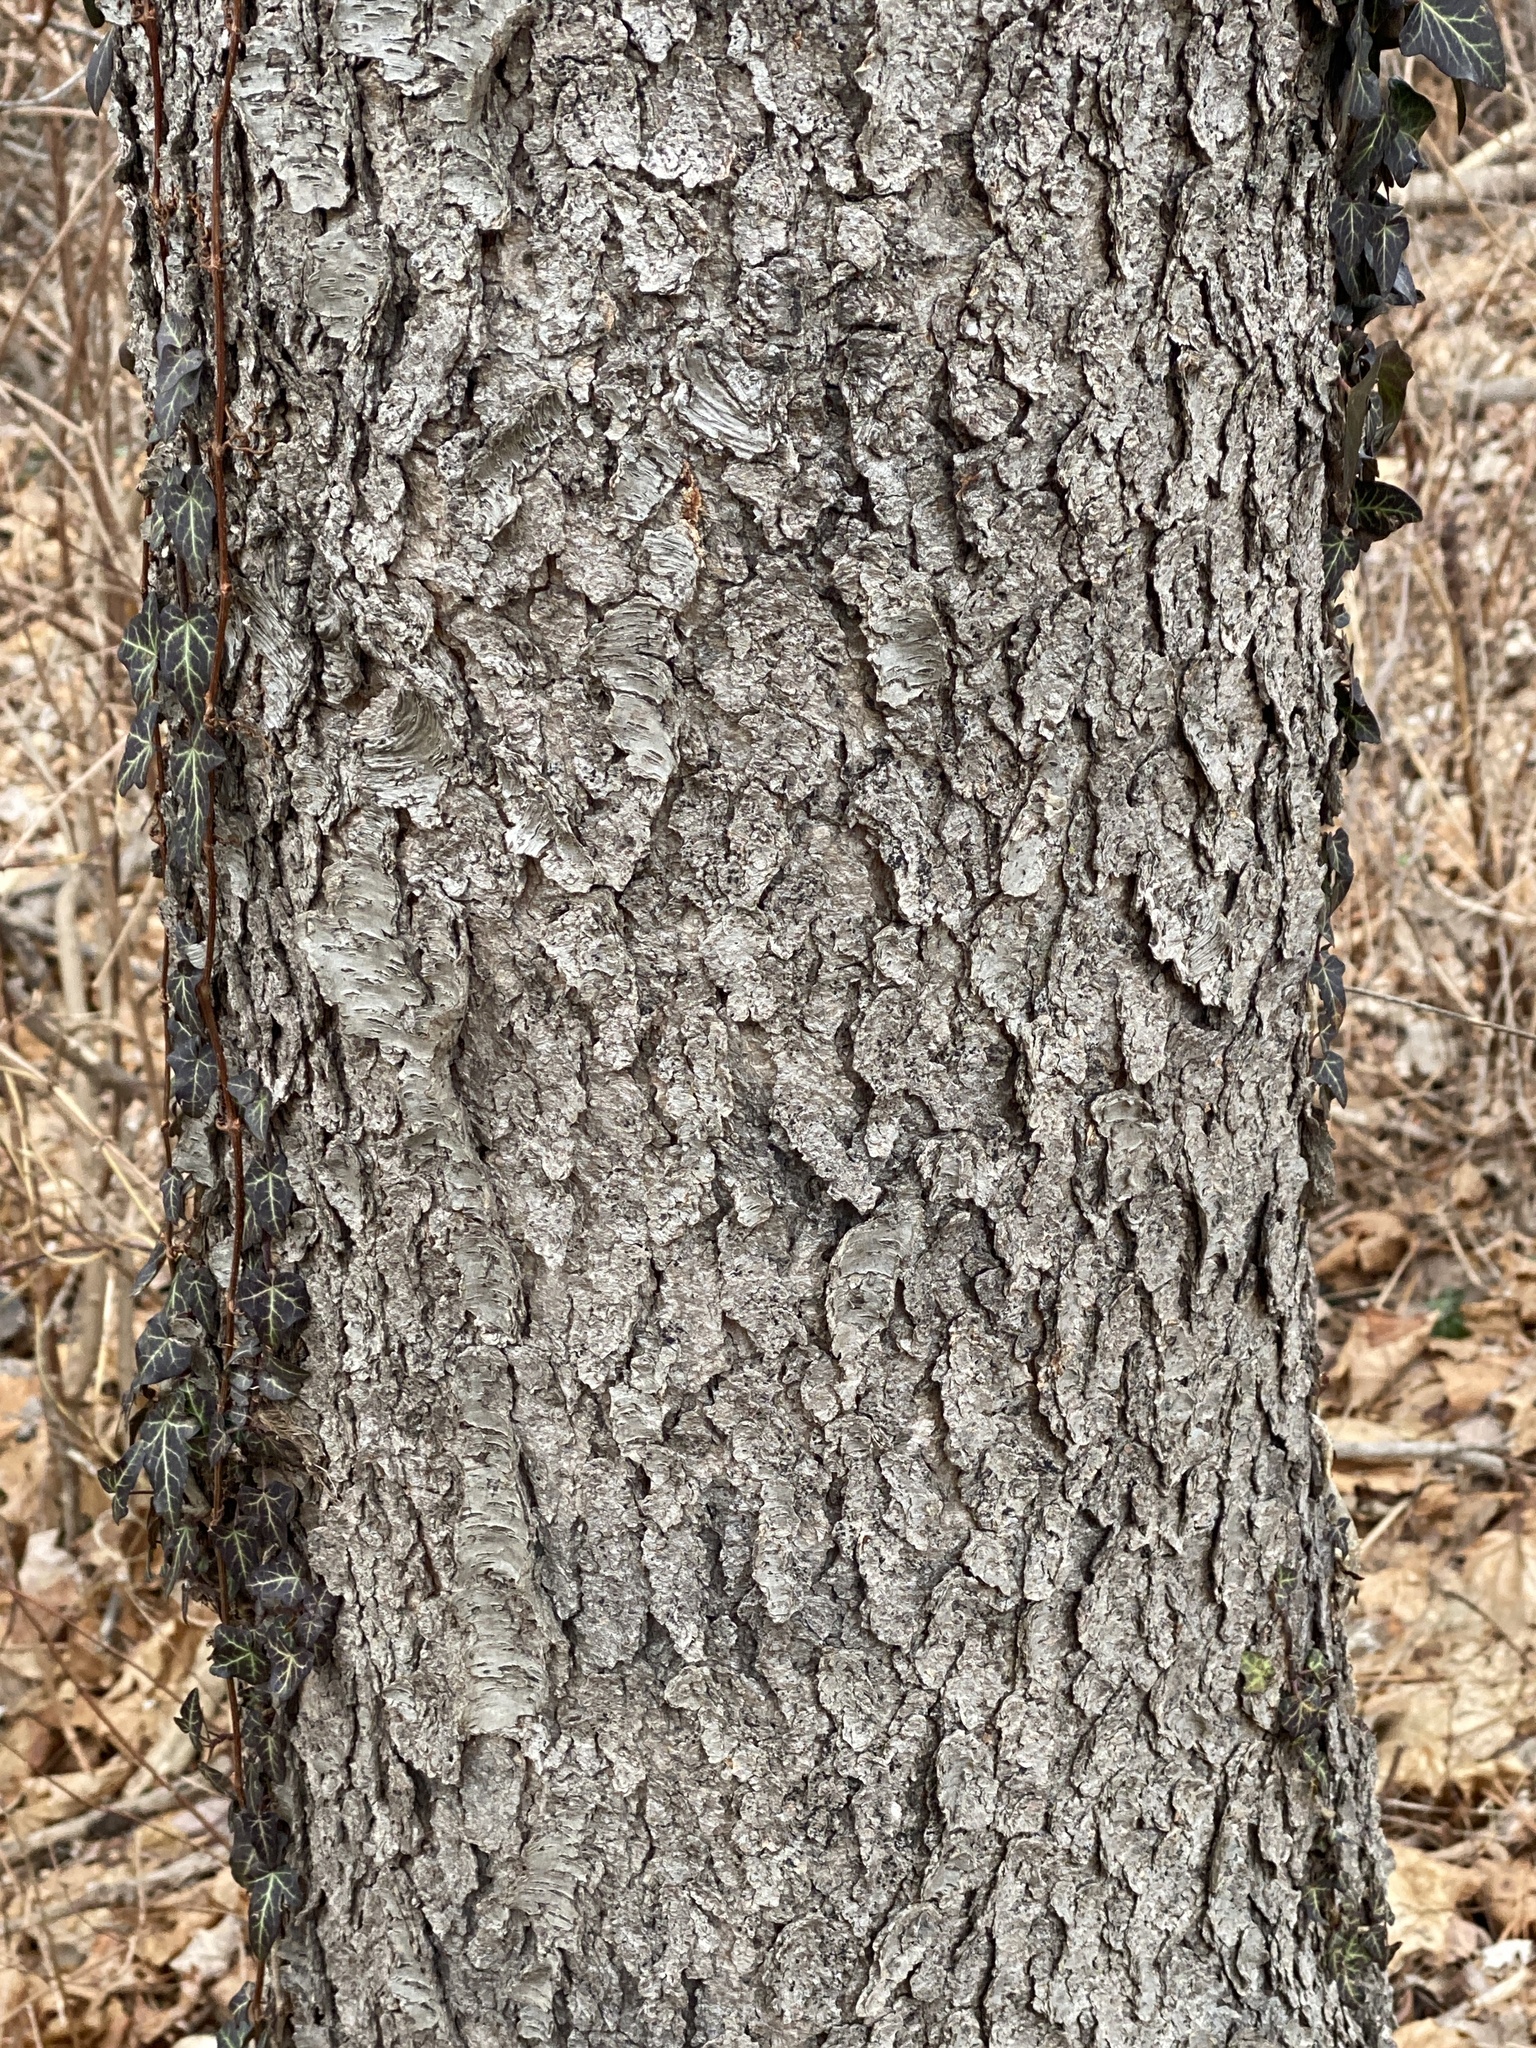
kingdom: Plantae
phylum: Tracheophyta
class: Magnoliopsida
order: Rosales
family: Rosaceae
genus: Prunus
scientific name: Prunus serotina
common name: Black cherry
